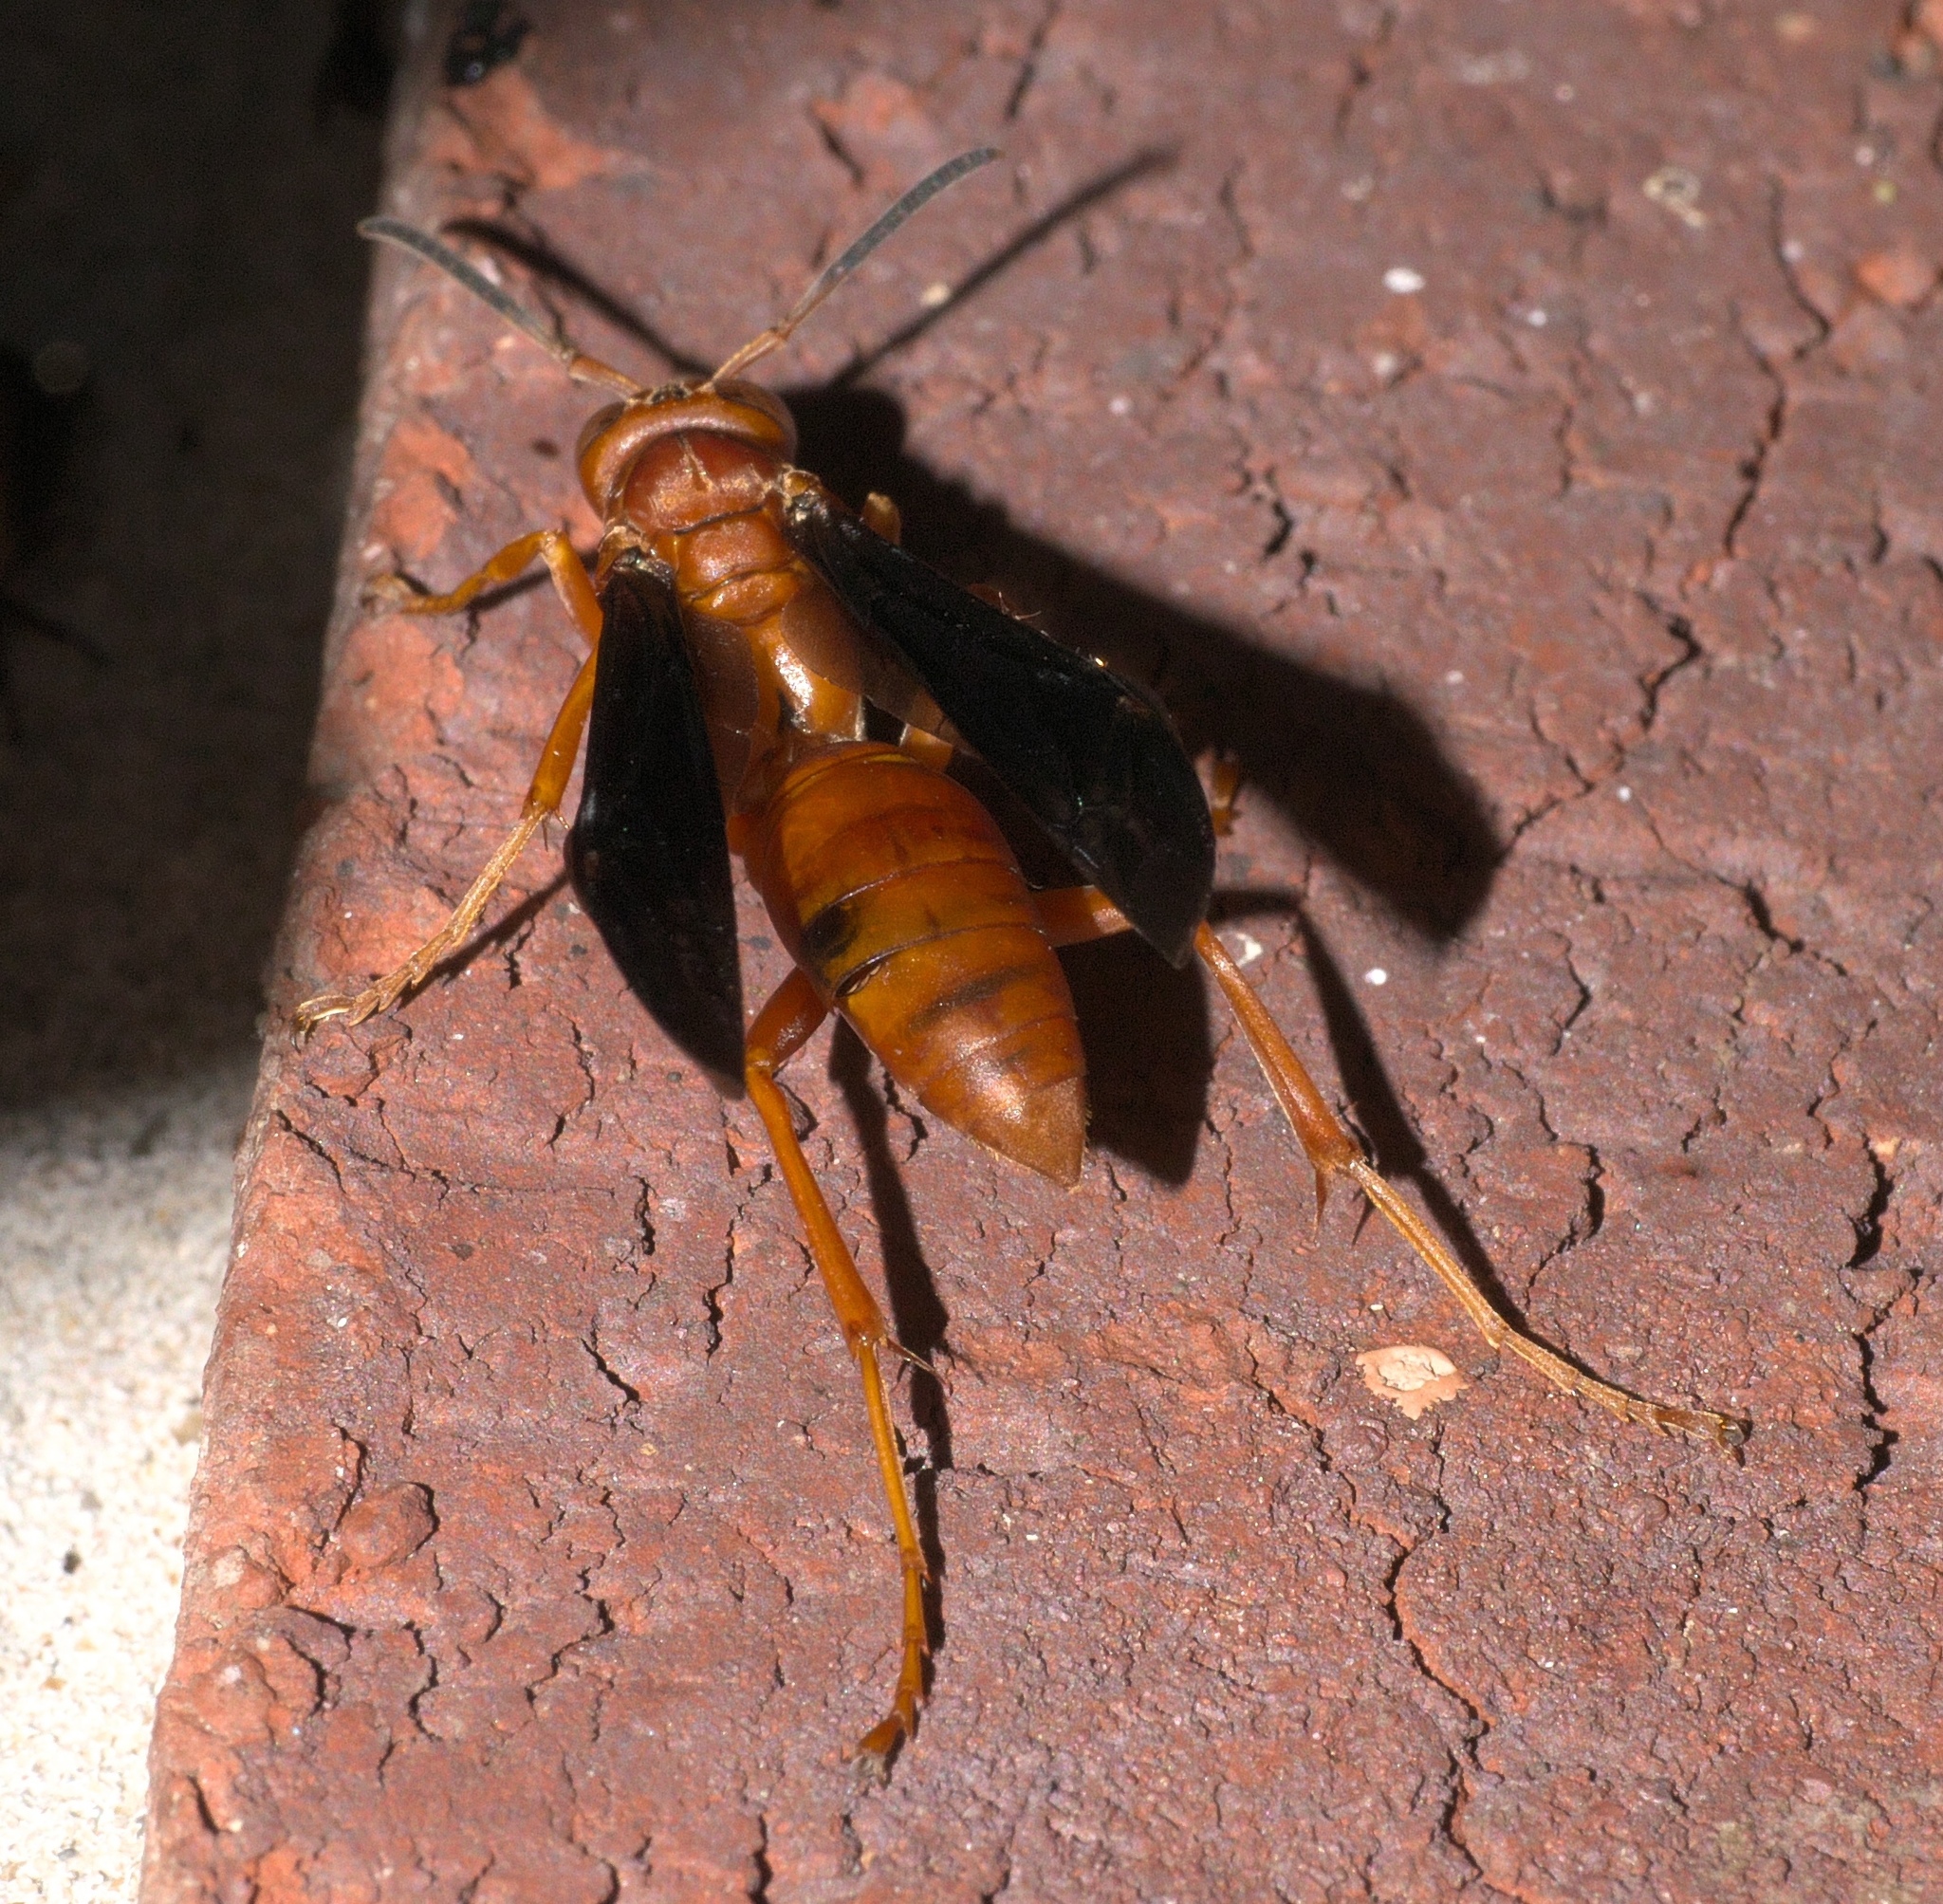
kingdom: Animalia
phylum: Arthropoda
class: Insecta
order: Hymenoptera
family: Vespidae
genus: Fuscopolistes
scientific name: Fuscopolistes
